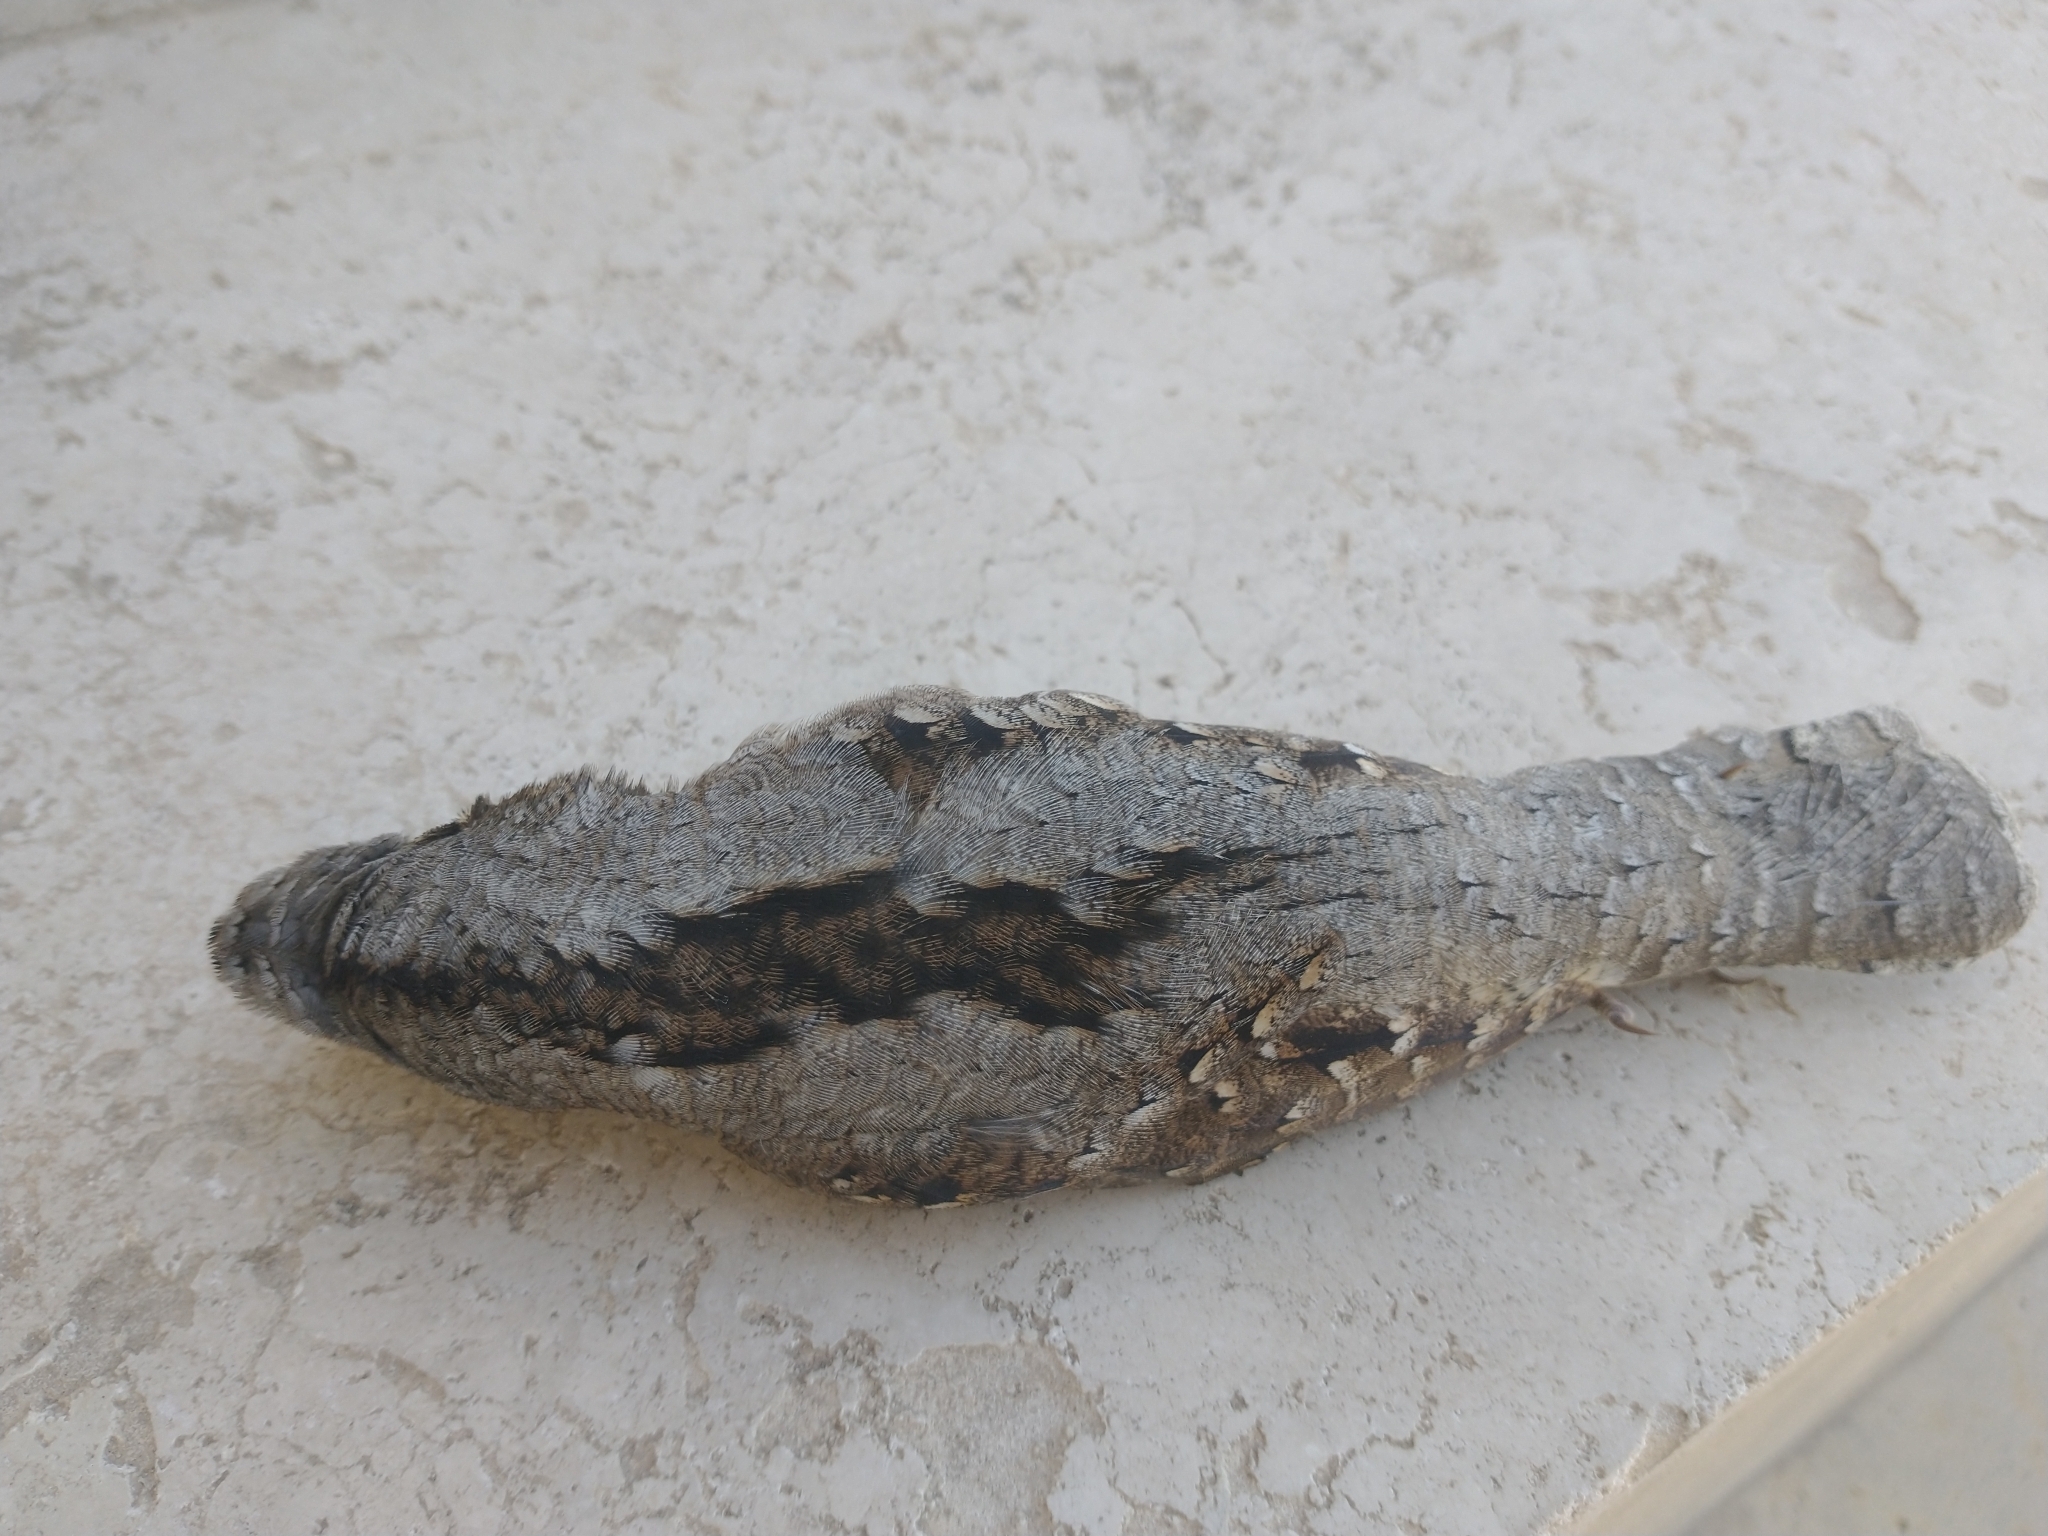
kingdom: Animalia
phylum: Chordata
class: Aves
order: Piciformes
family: Picidae
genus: Jynx
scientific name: Jynx torquilla
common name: Eurasian wryneck
